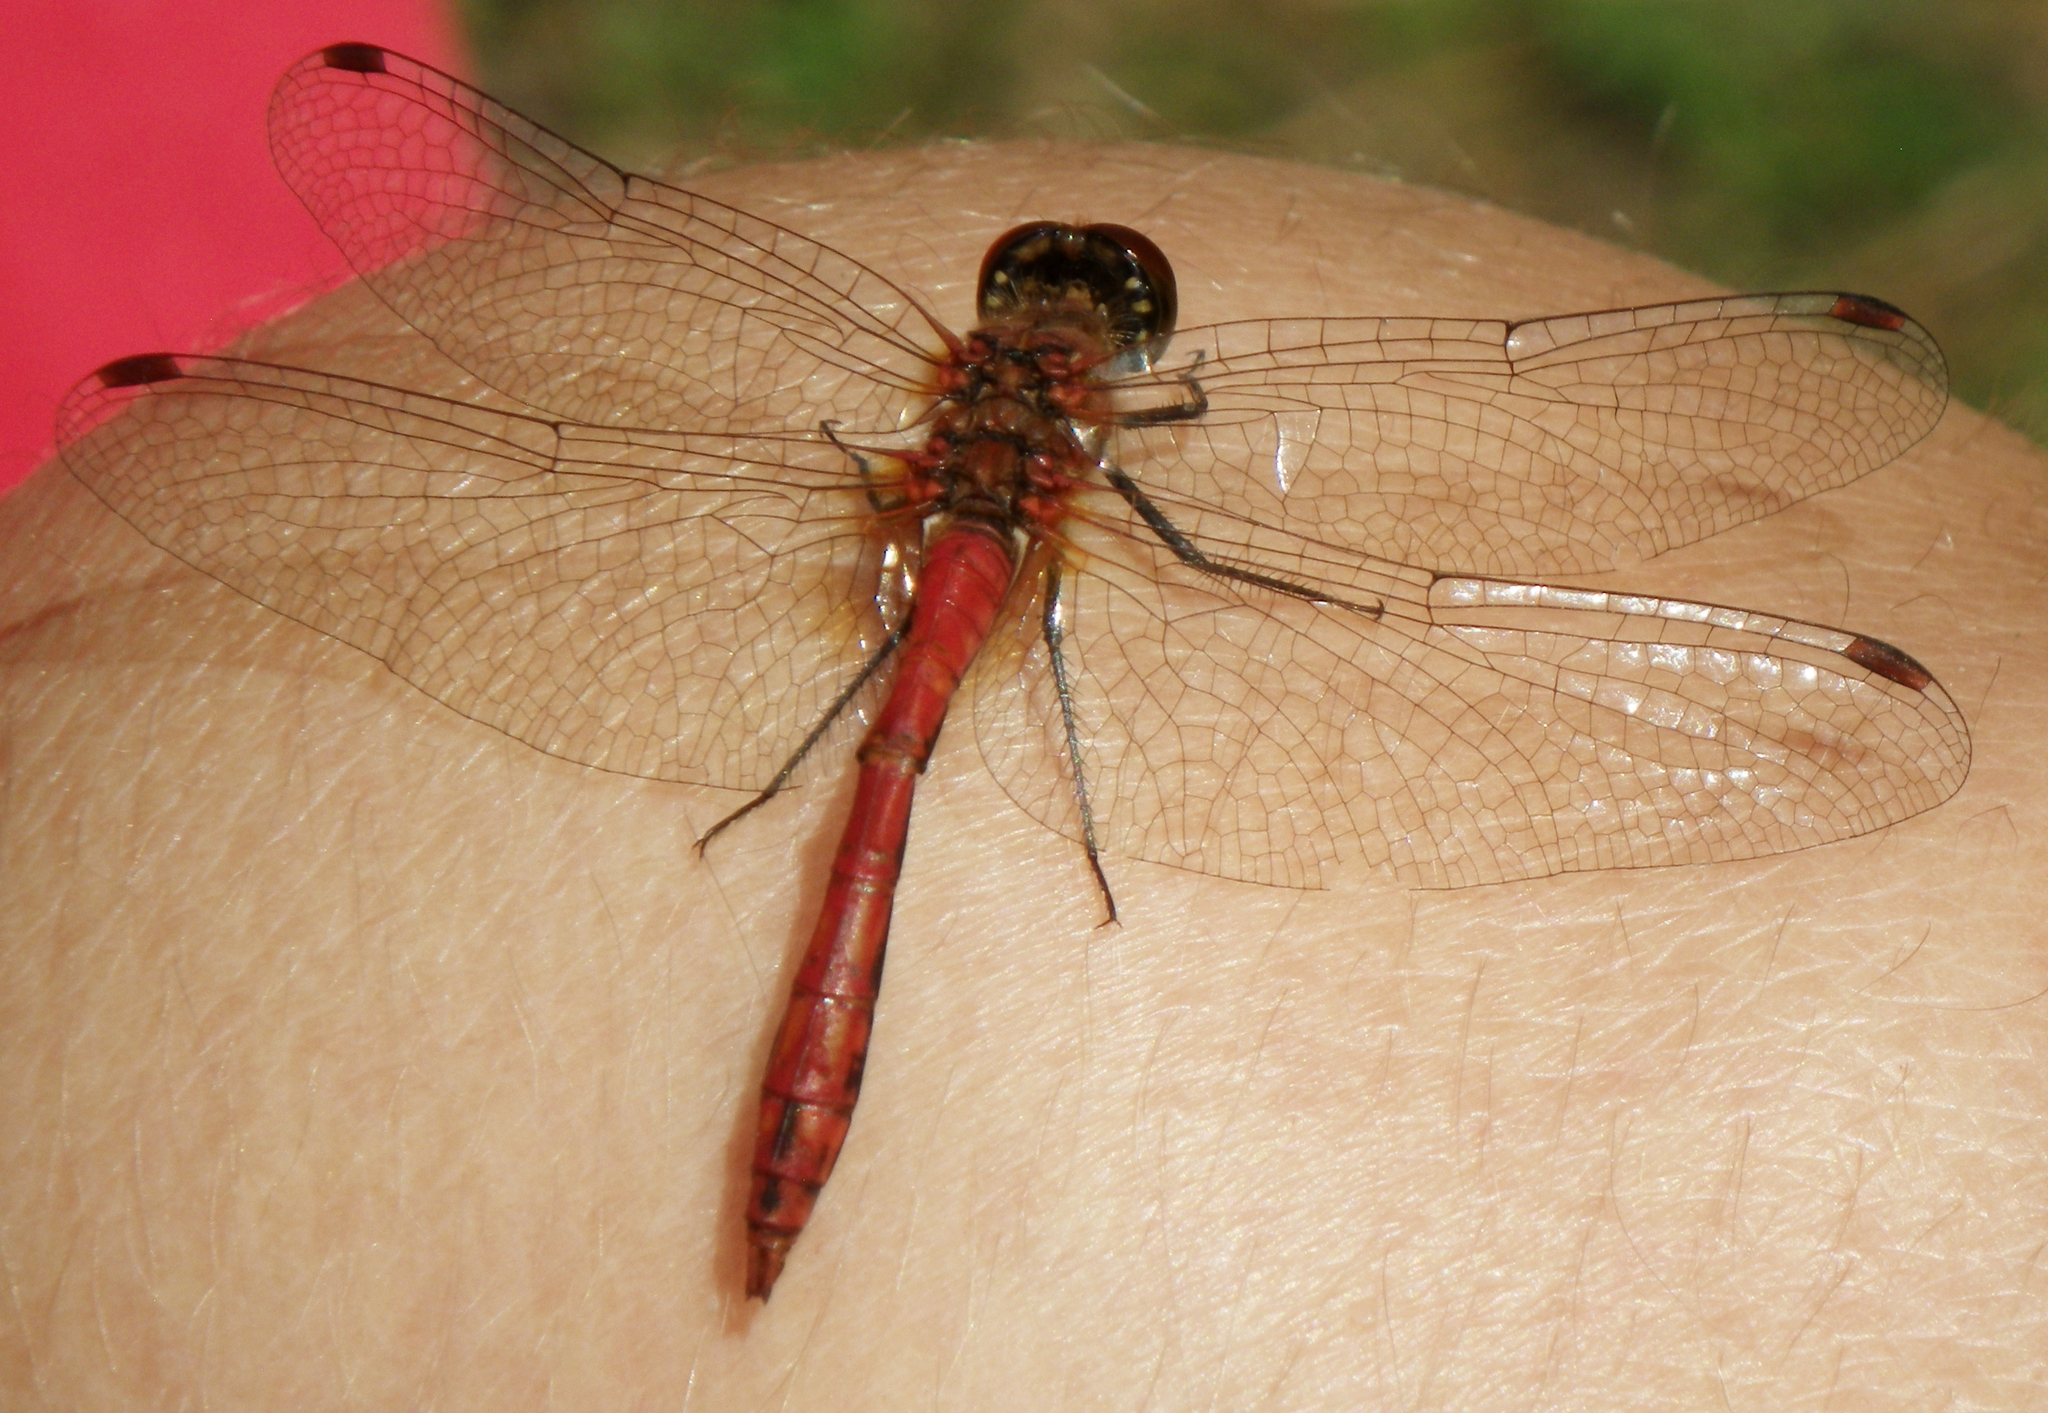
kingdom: Animalia
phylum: Arthropoda
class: Insecta
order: Odonata
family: Libellulidae
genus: Sympetrum
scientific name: Sympetrum sanguineum
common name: Ruddy darter
